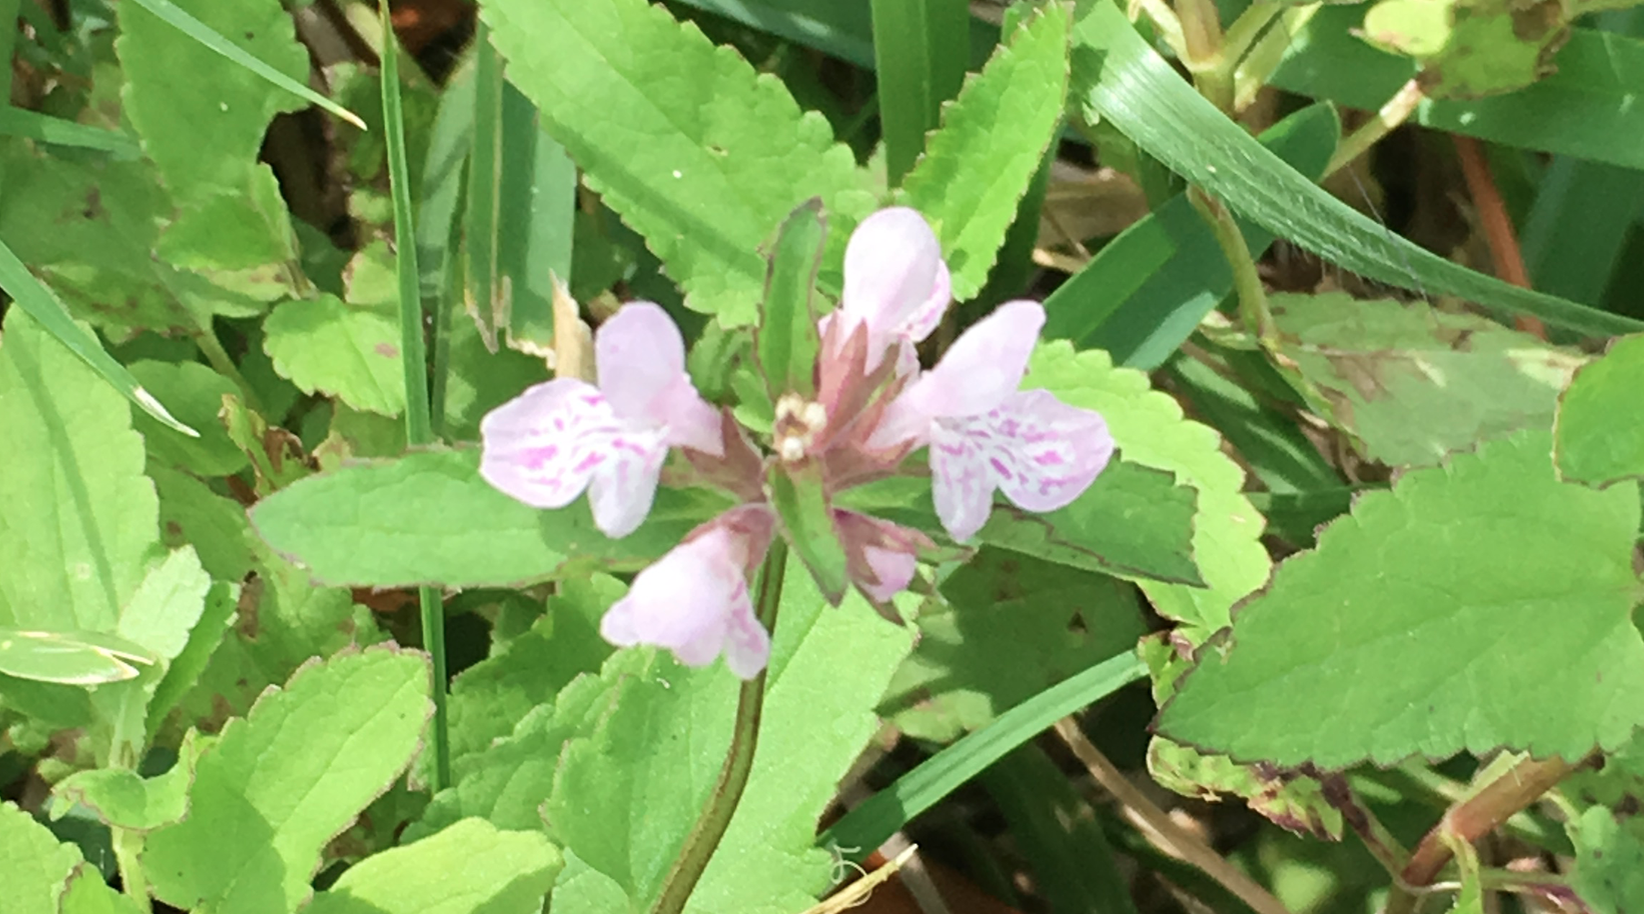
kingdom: Plantae
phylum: Tracheophyta
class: Magnoliopsida
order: Lamiales
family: Lamiaceae
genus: Stachys
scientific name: Stachys floridana
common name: Florida betony
